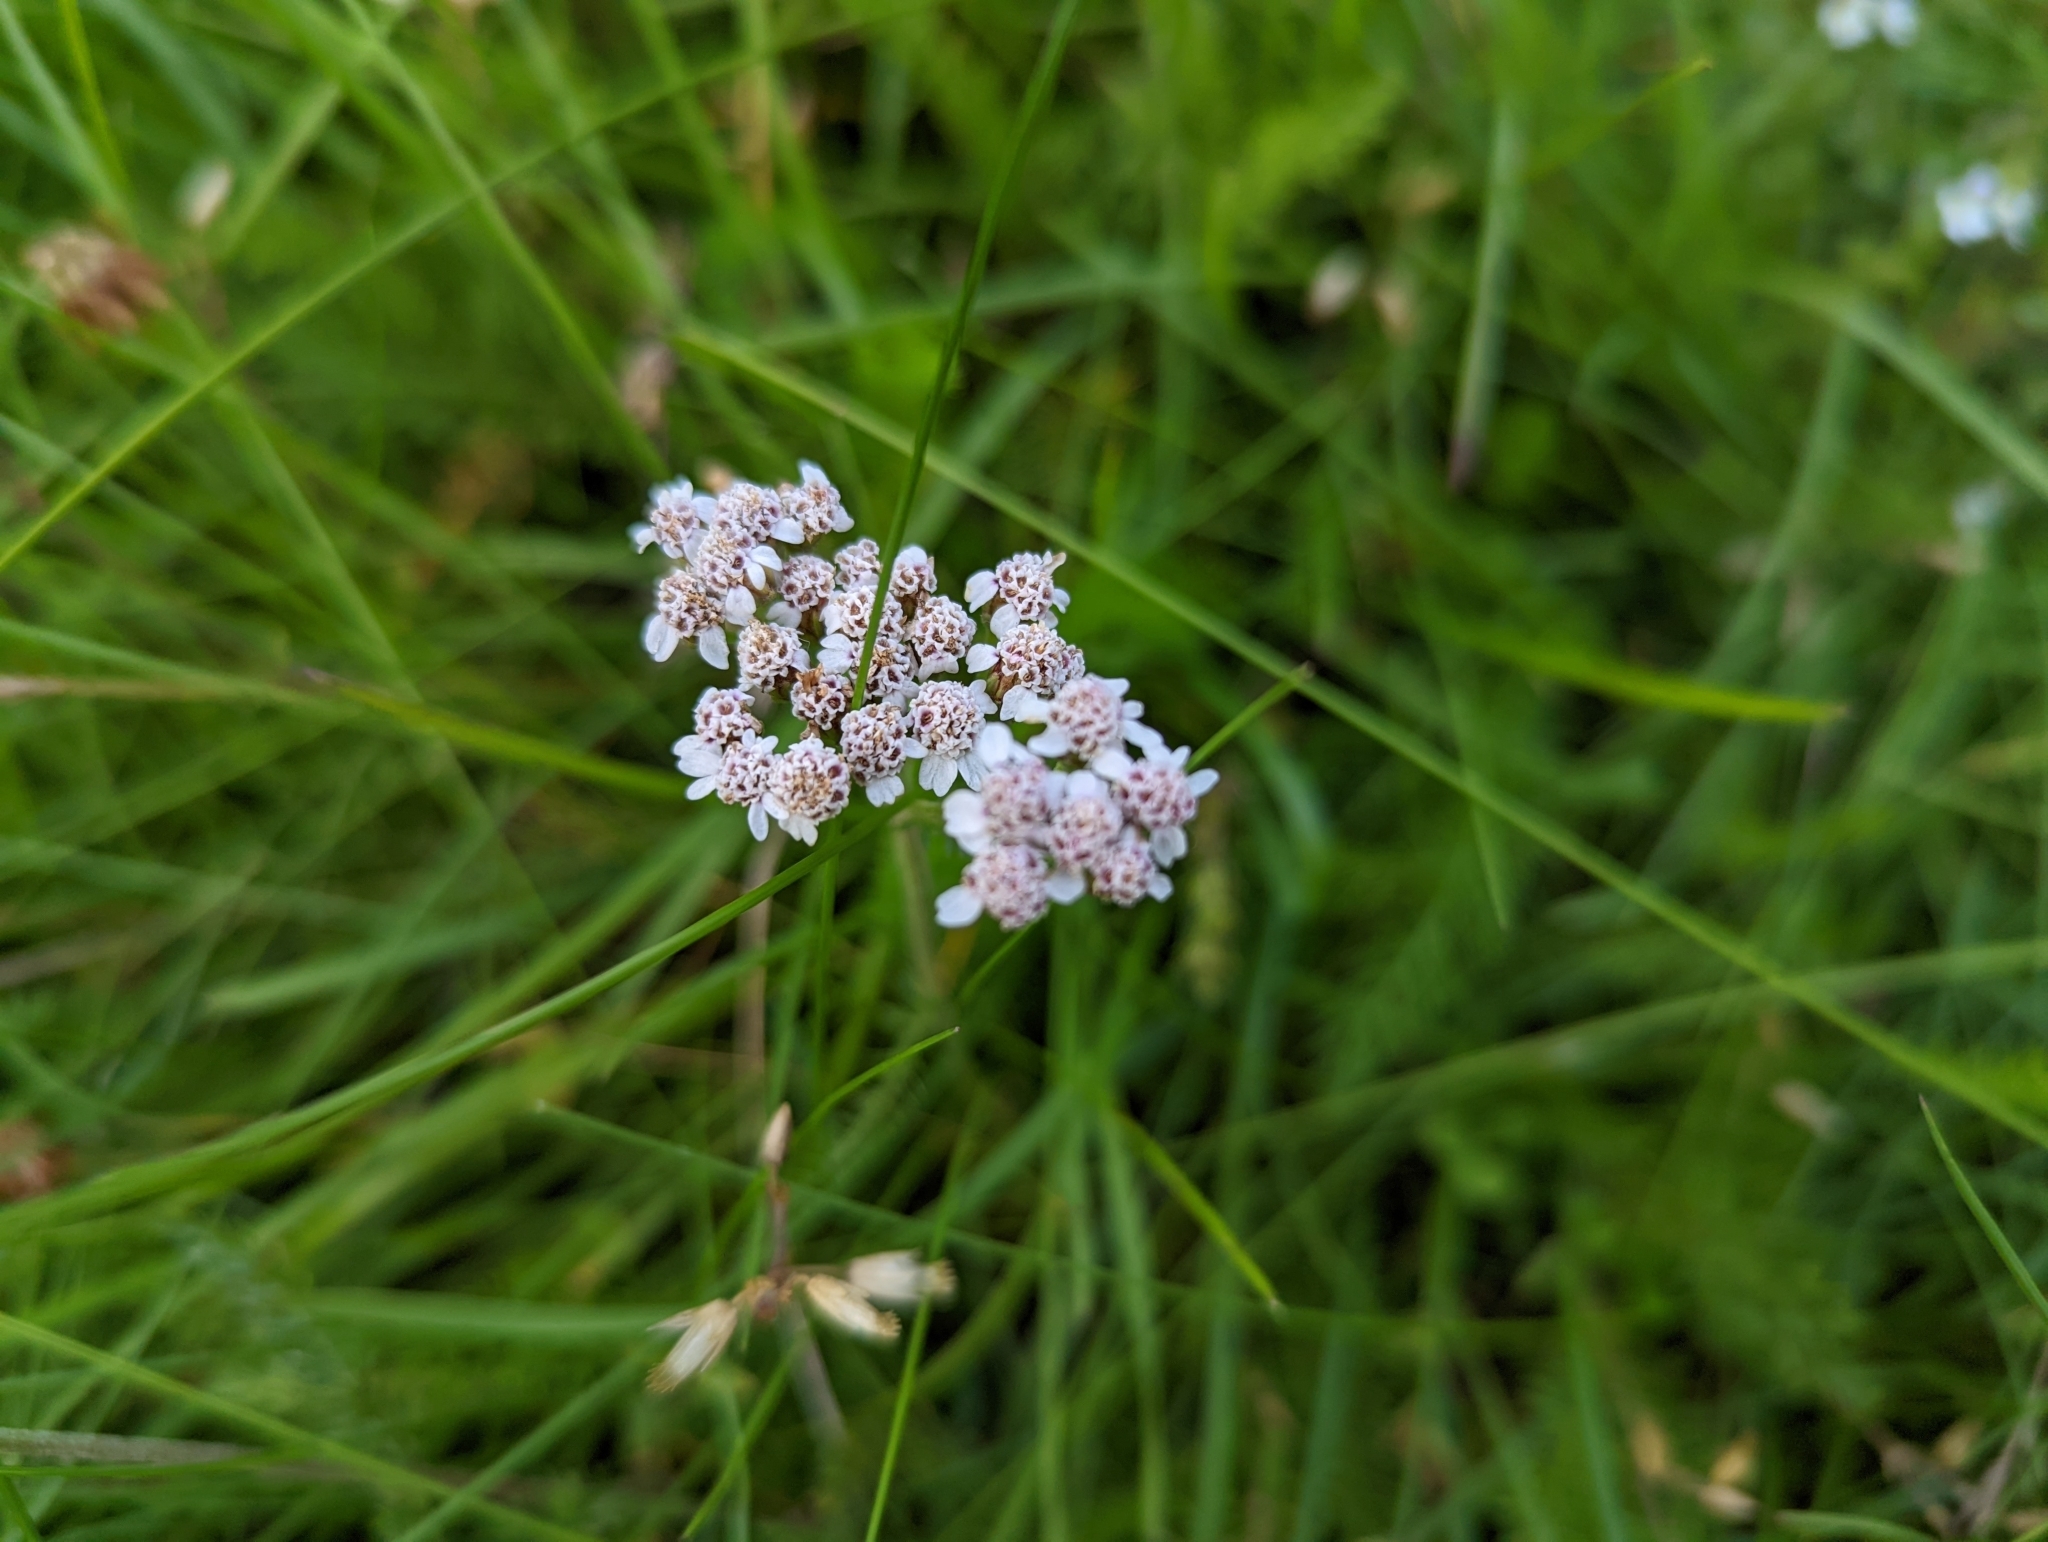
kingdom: Plantae
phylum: Tracheophyta
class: Magnoliopsida
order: Asterales
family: Asteraceae
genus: Achillea
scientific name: Achillea millefolium
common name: Yarrow
